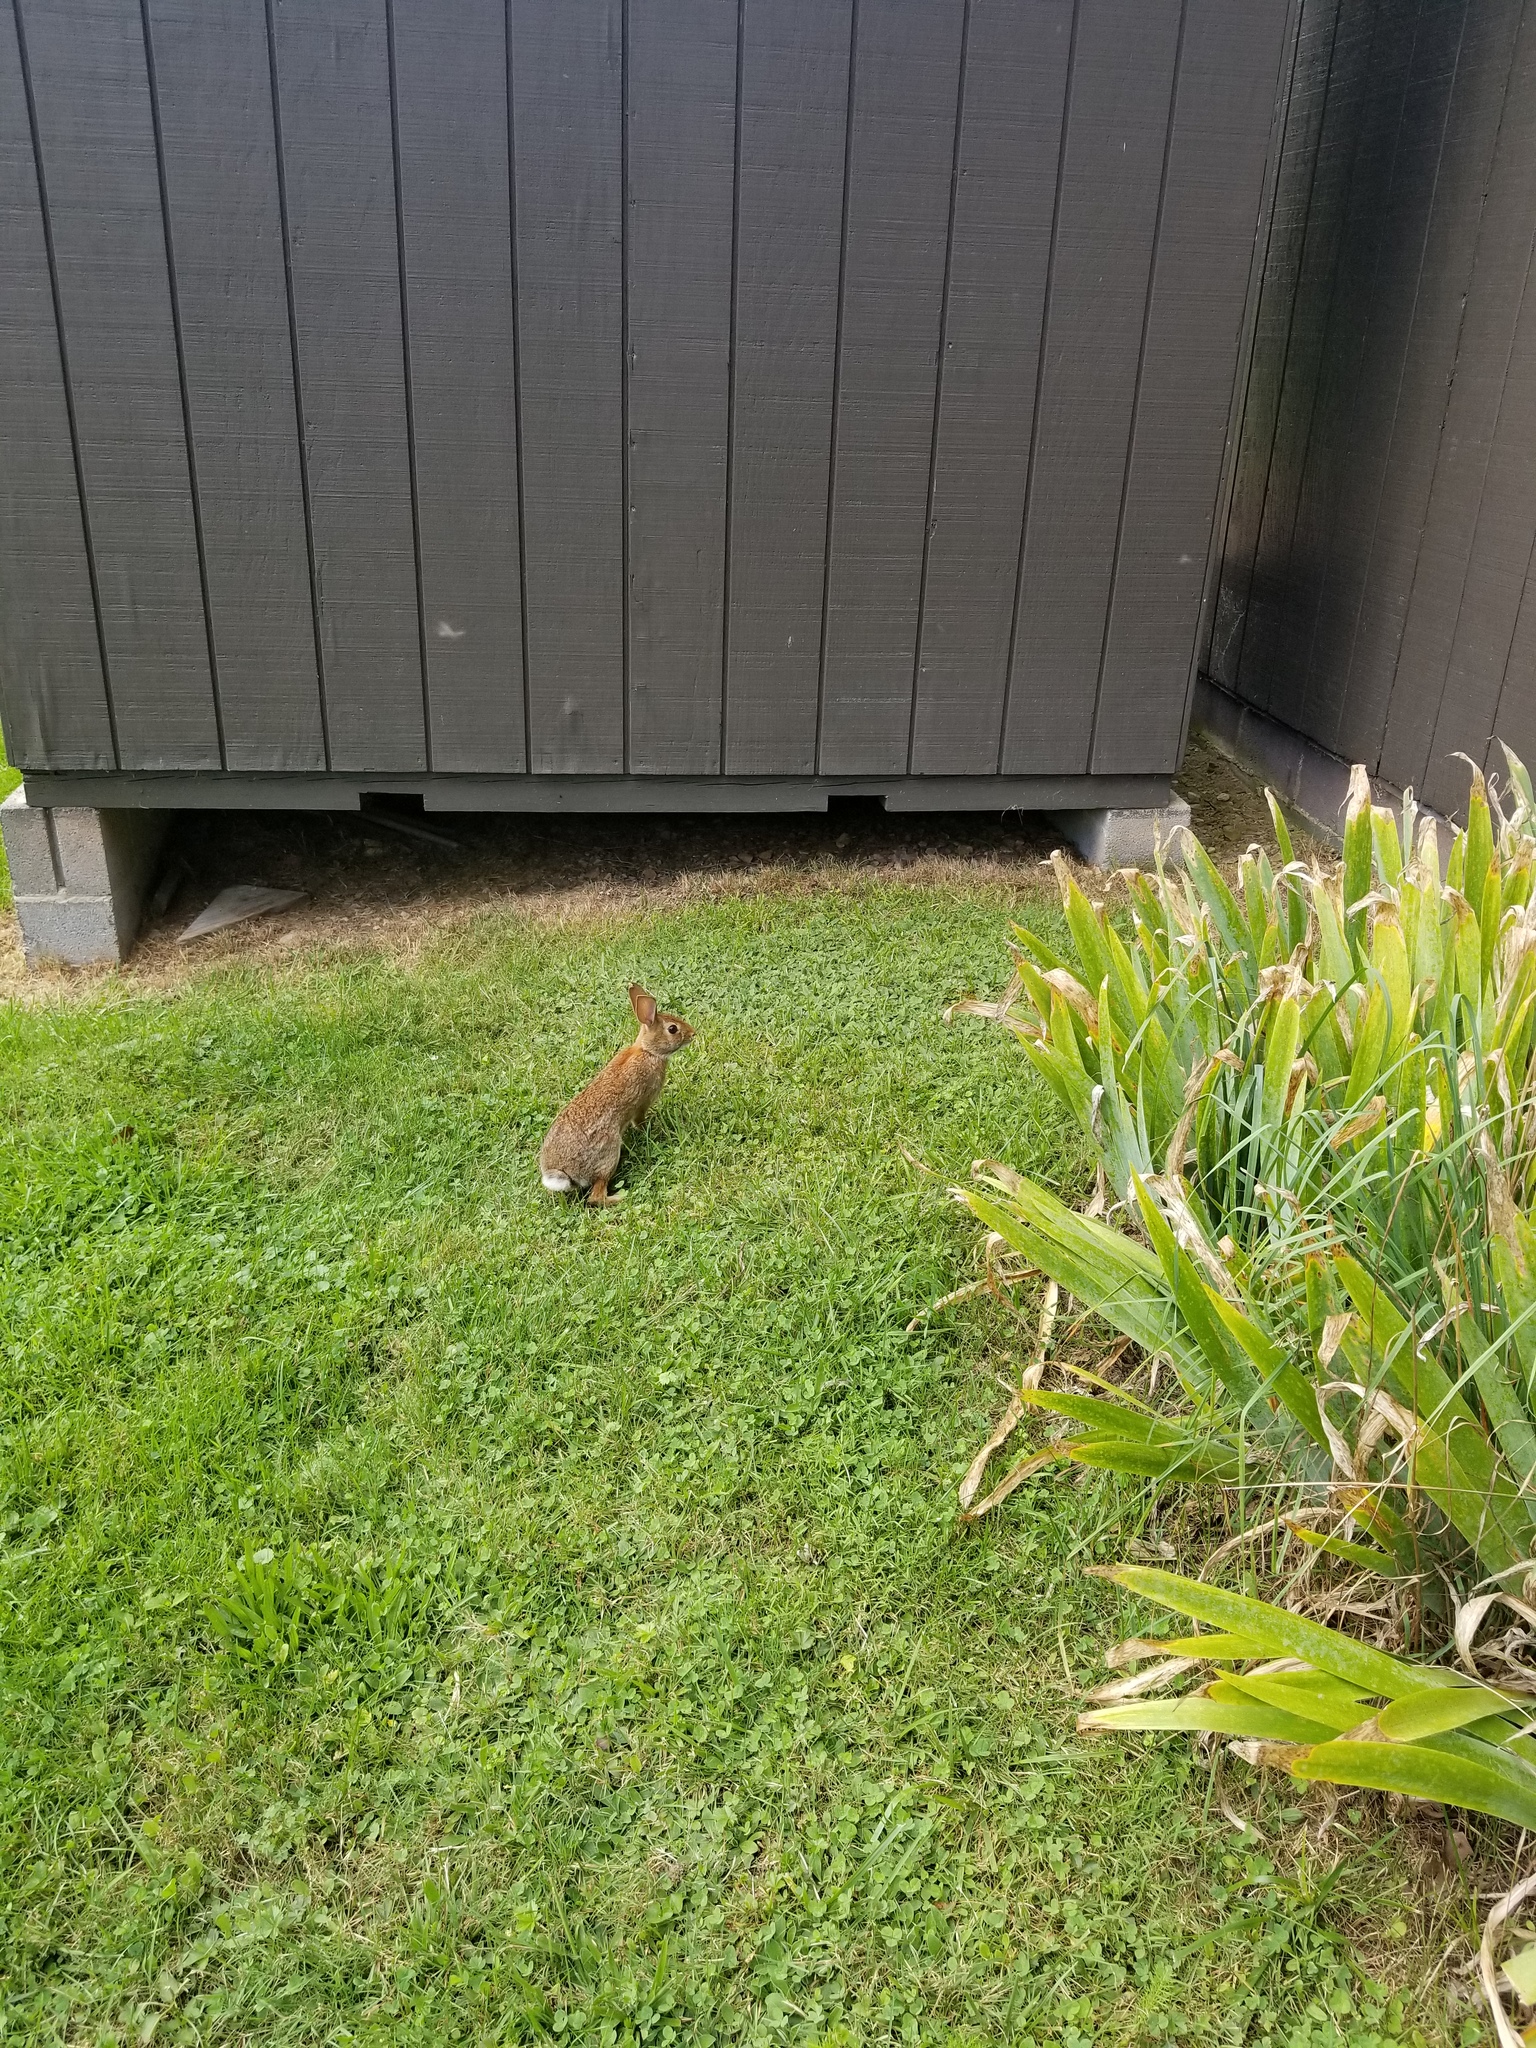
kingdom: Animalia
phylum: Chordata
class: Mammalia
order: Lagomorpha
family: Leporidae
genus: Sylvilagus
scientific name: Sylvilagus floridanus
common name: Eastern cottontail
